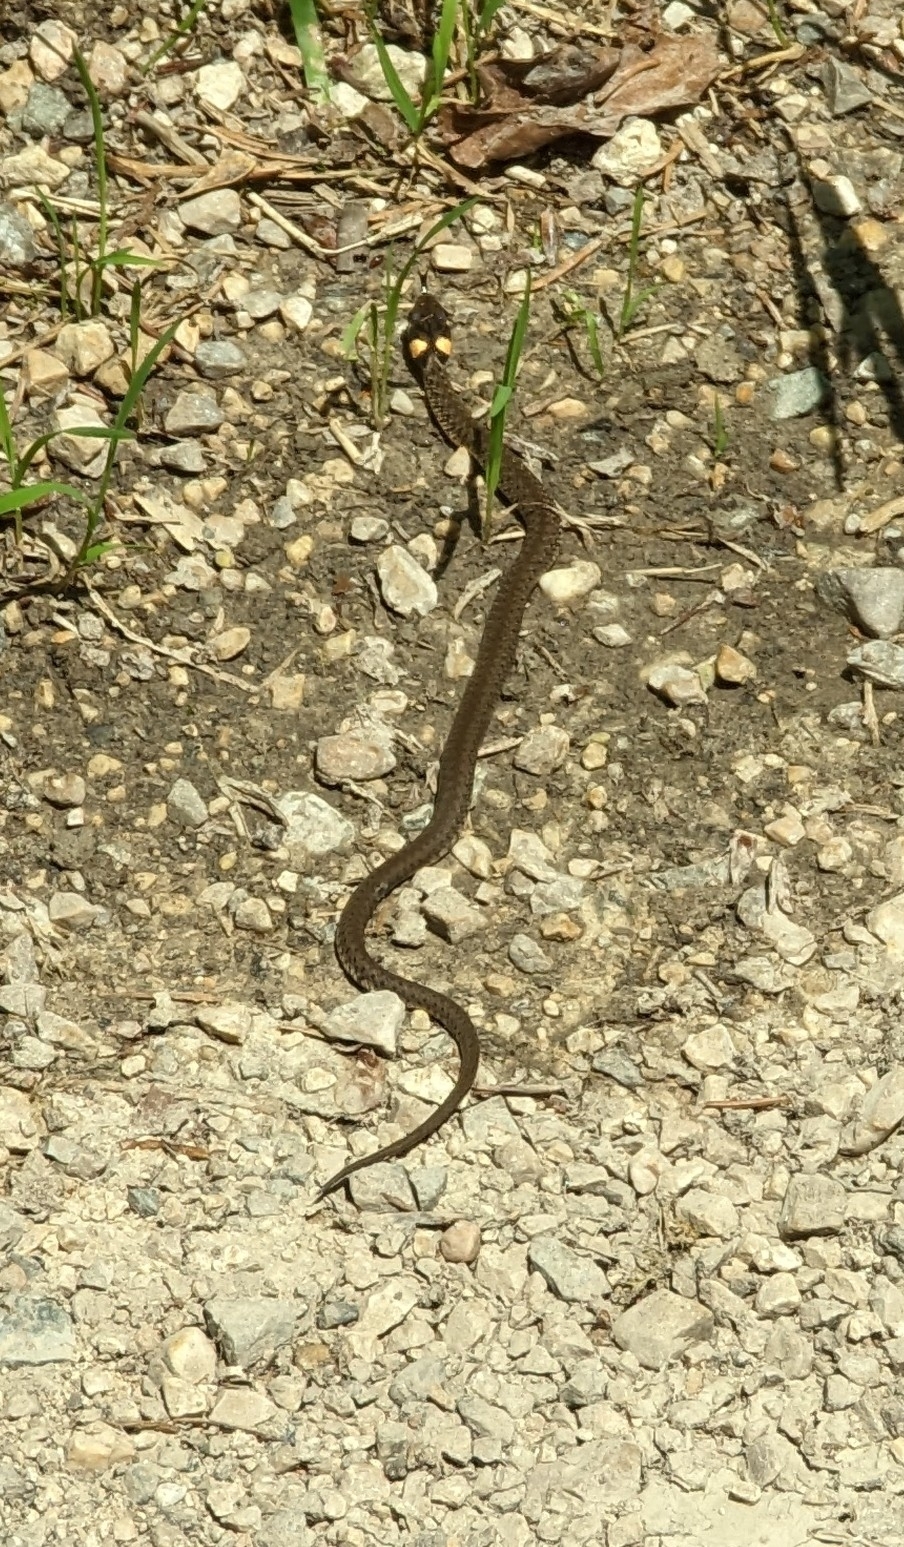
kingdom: Animalia
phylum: Chordata
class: Squamata
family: Colubridae
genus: Natrix
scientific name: Natrix natrix
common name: Grass snake
